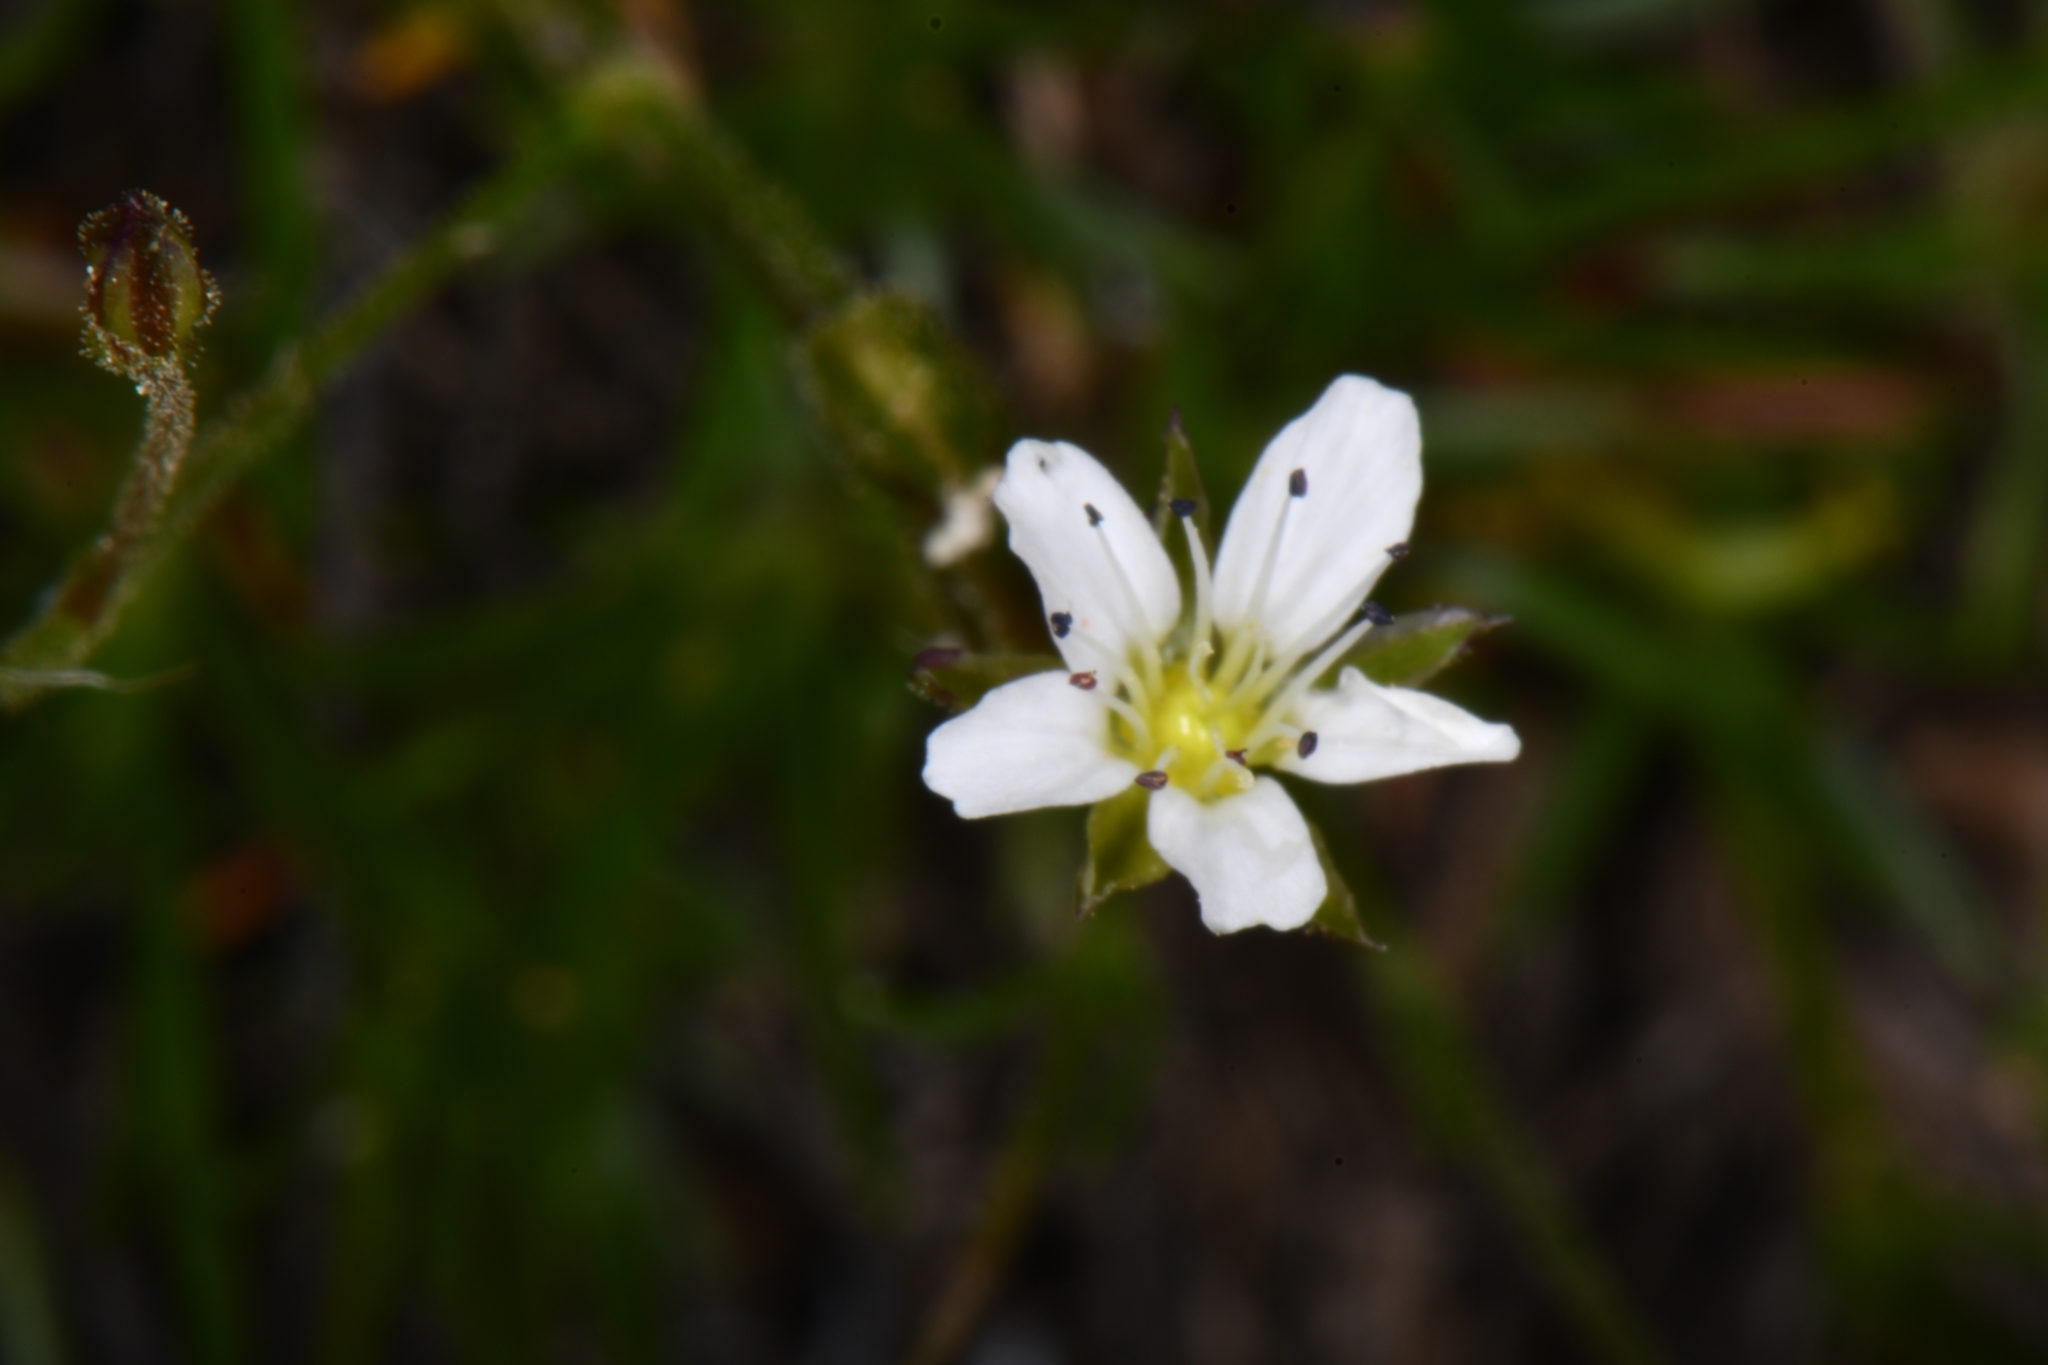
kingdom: Plantae
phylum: Tracheophyta
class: Magnoliopsida
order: Caryophyllales
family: Caryophyllaceae
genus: Eremogone
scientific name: Eremogone fendleri
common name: Fendler's sandwort
